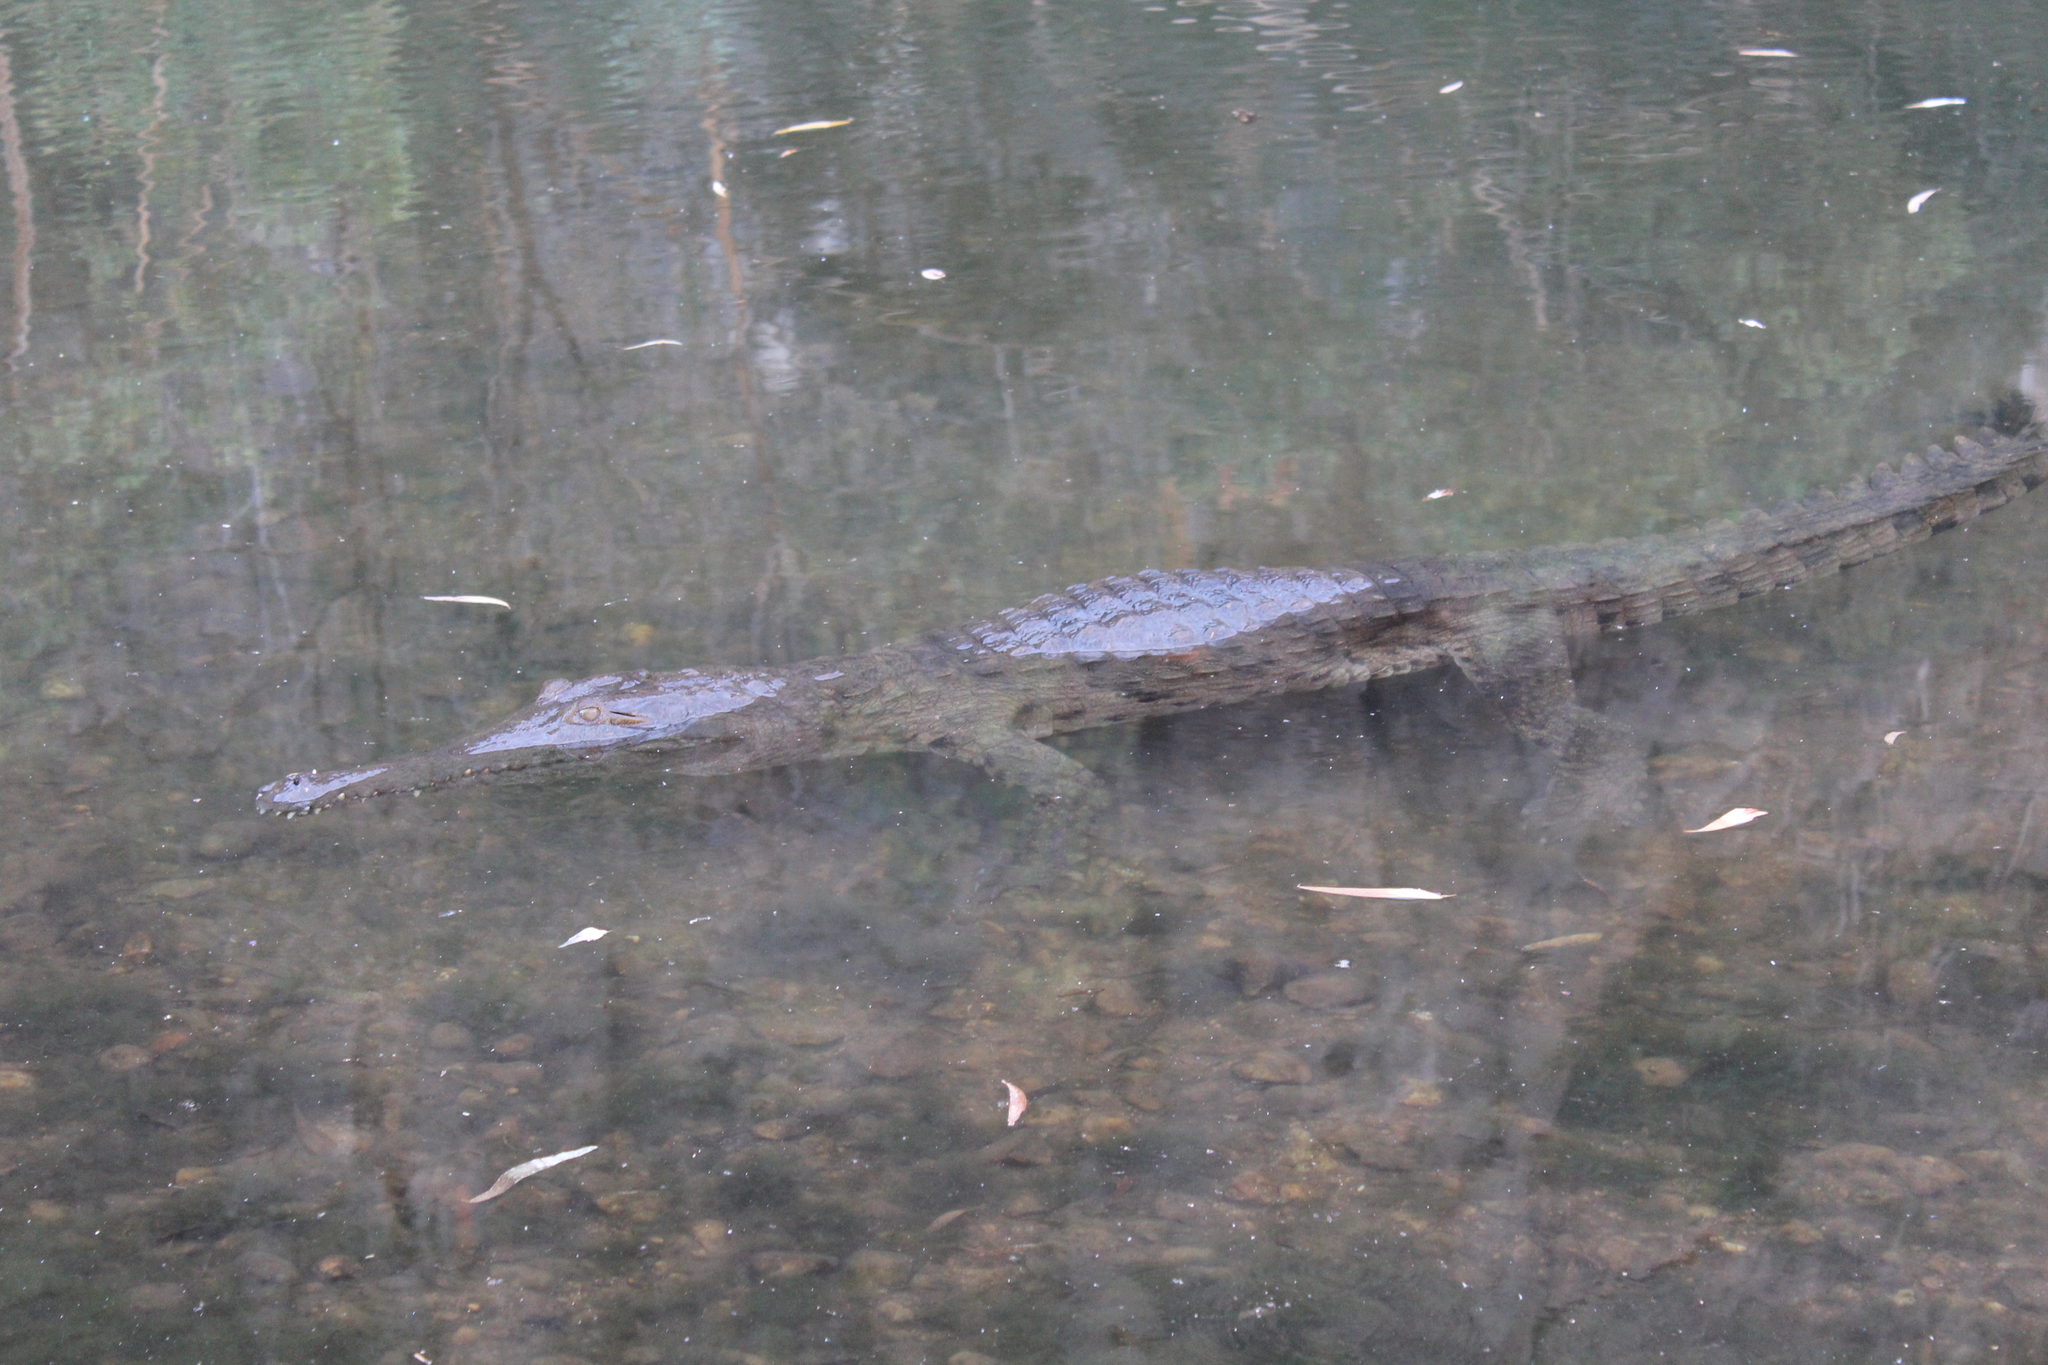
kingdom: Animalia
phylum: Chordata
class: Crocodylia
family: Crocodylidae
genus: Crocodylus
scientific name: Crocodylus johnsoni
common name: Freshwater crocodile
